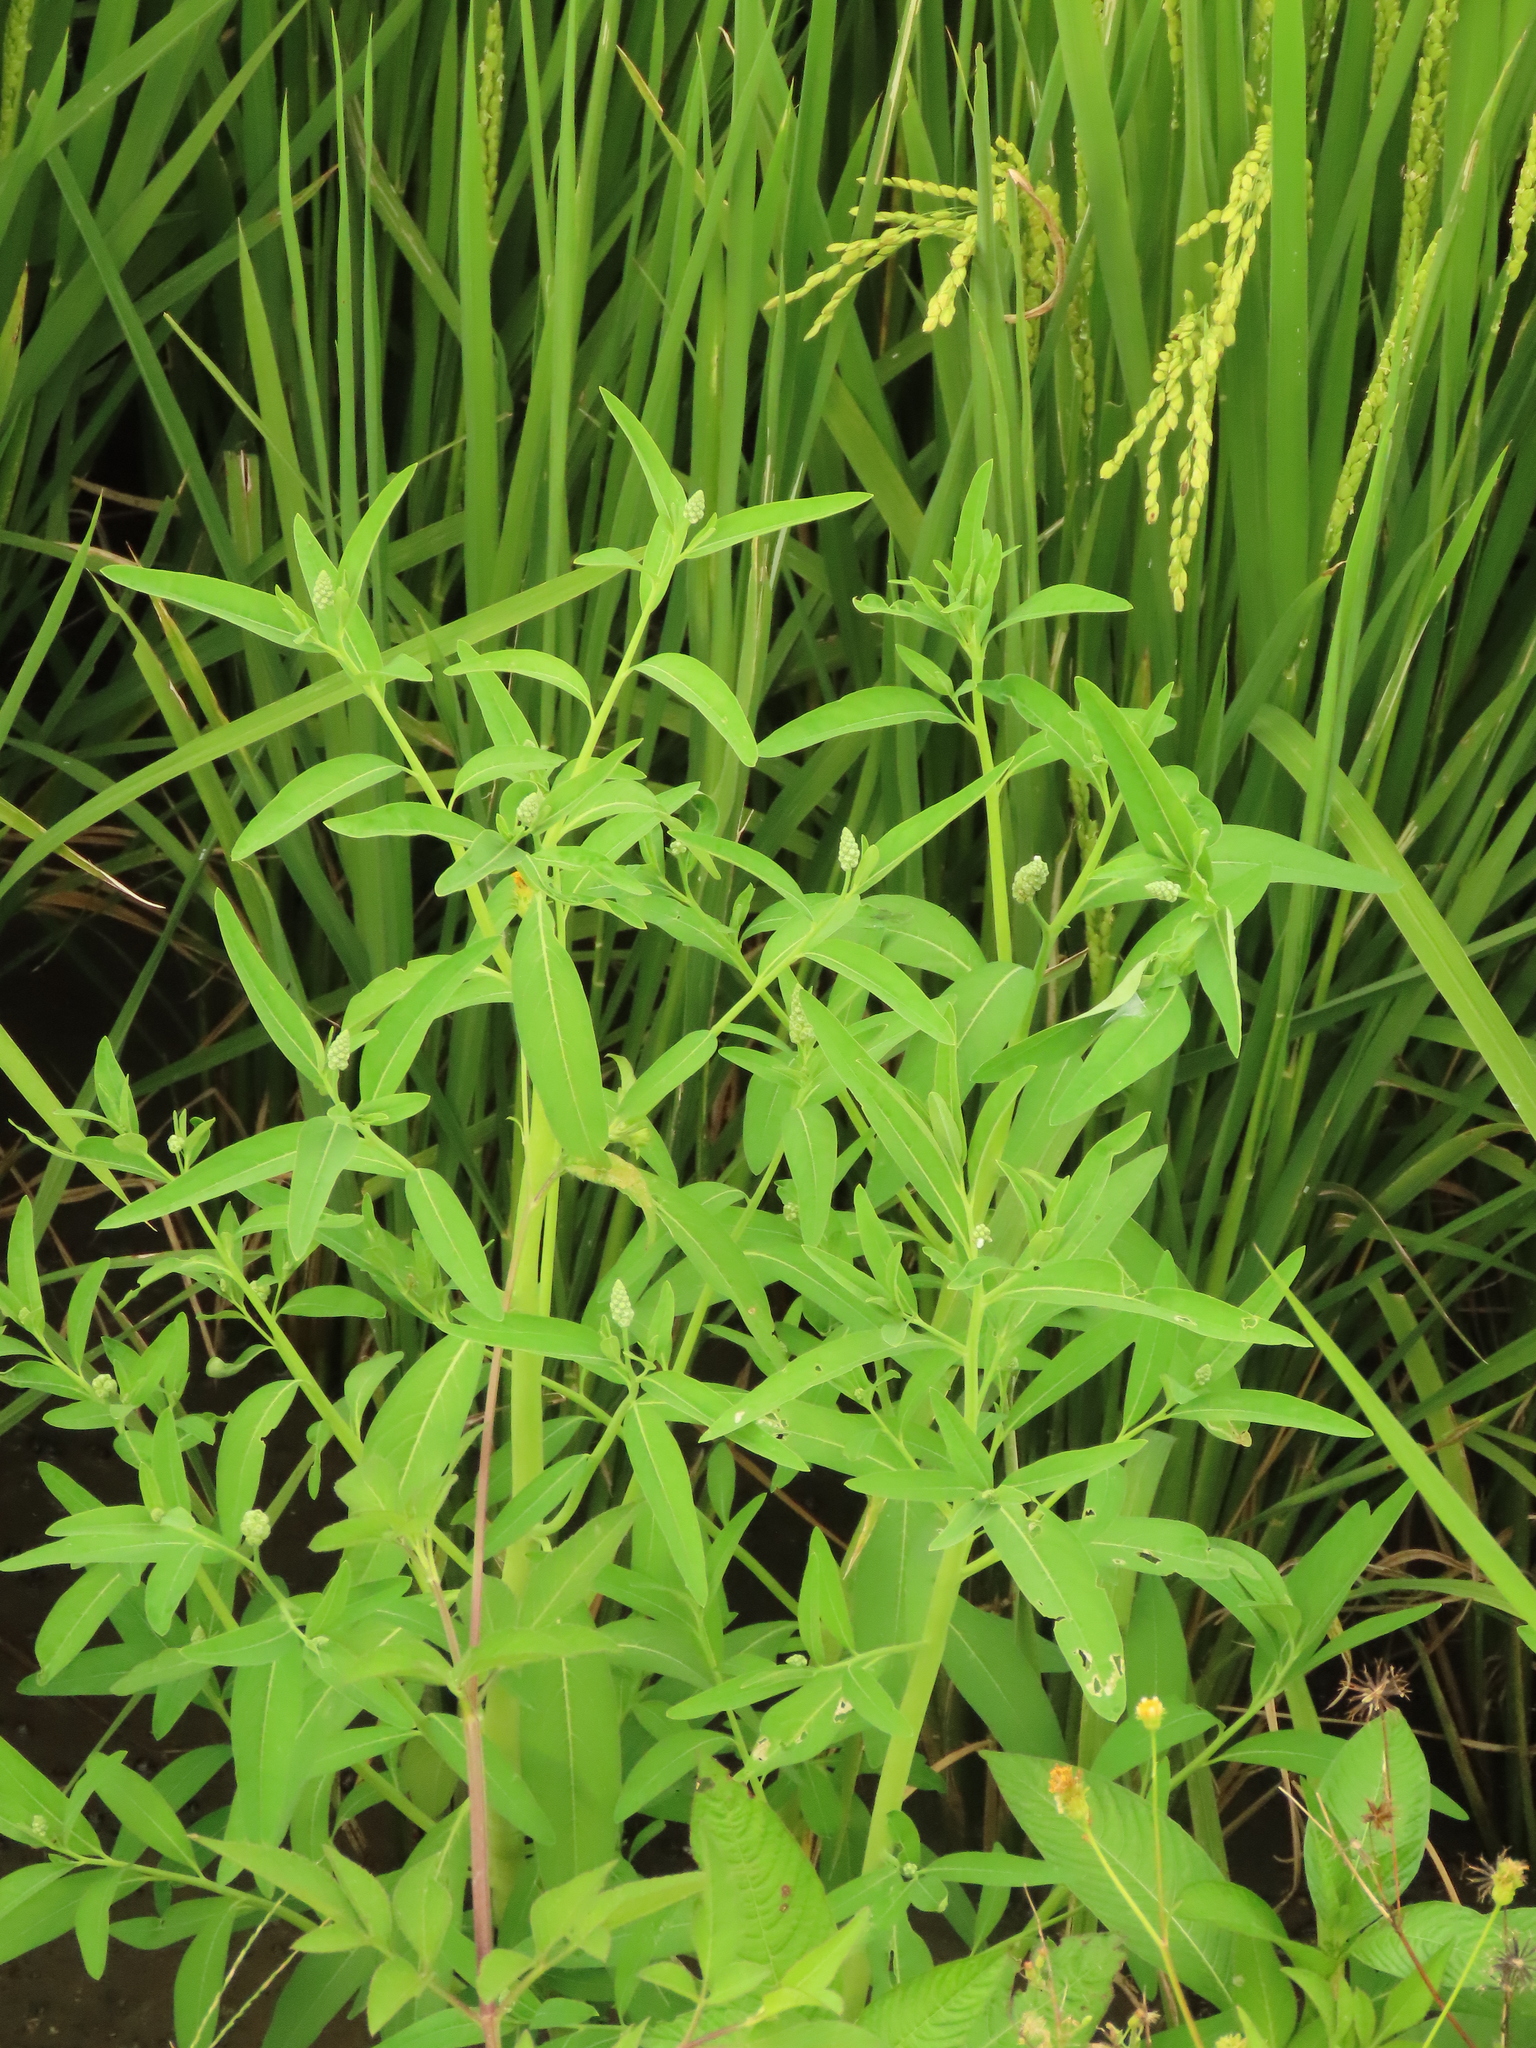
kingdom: Plantae
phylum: Tracheophyta
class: Magnoliopsida
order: Solanales
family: Sphenocleaceae
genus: Sphenoclea
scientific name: Sphenoclea zeylanica
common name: Chickenspike
